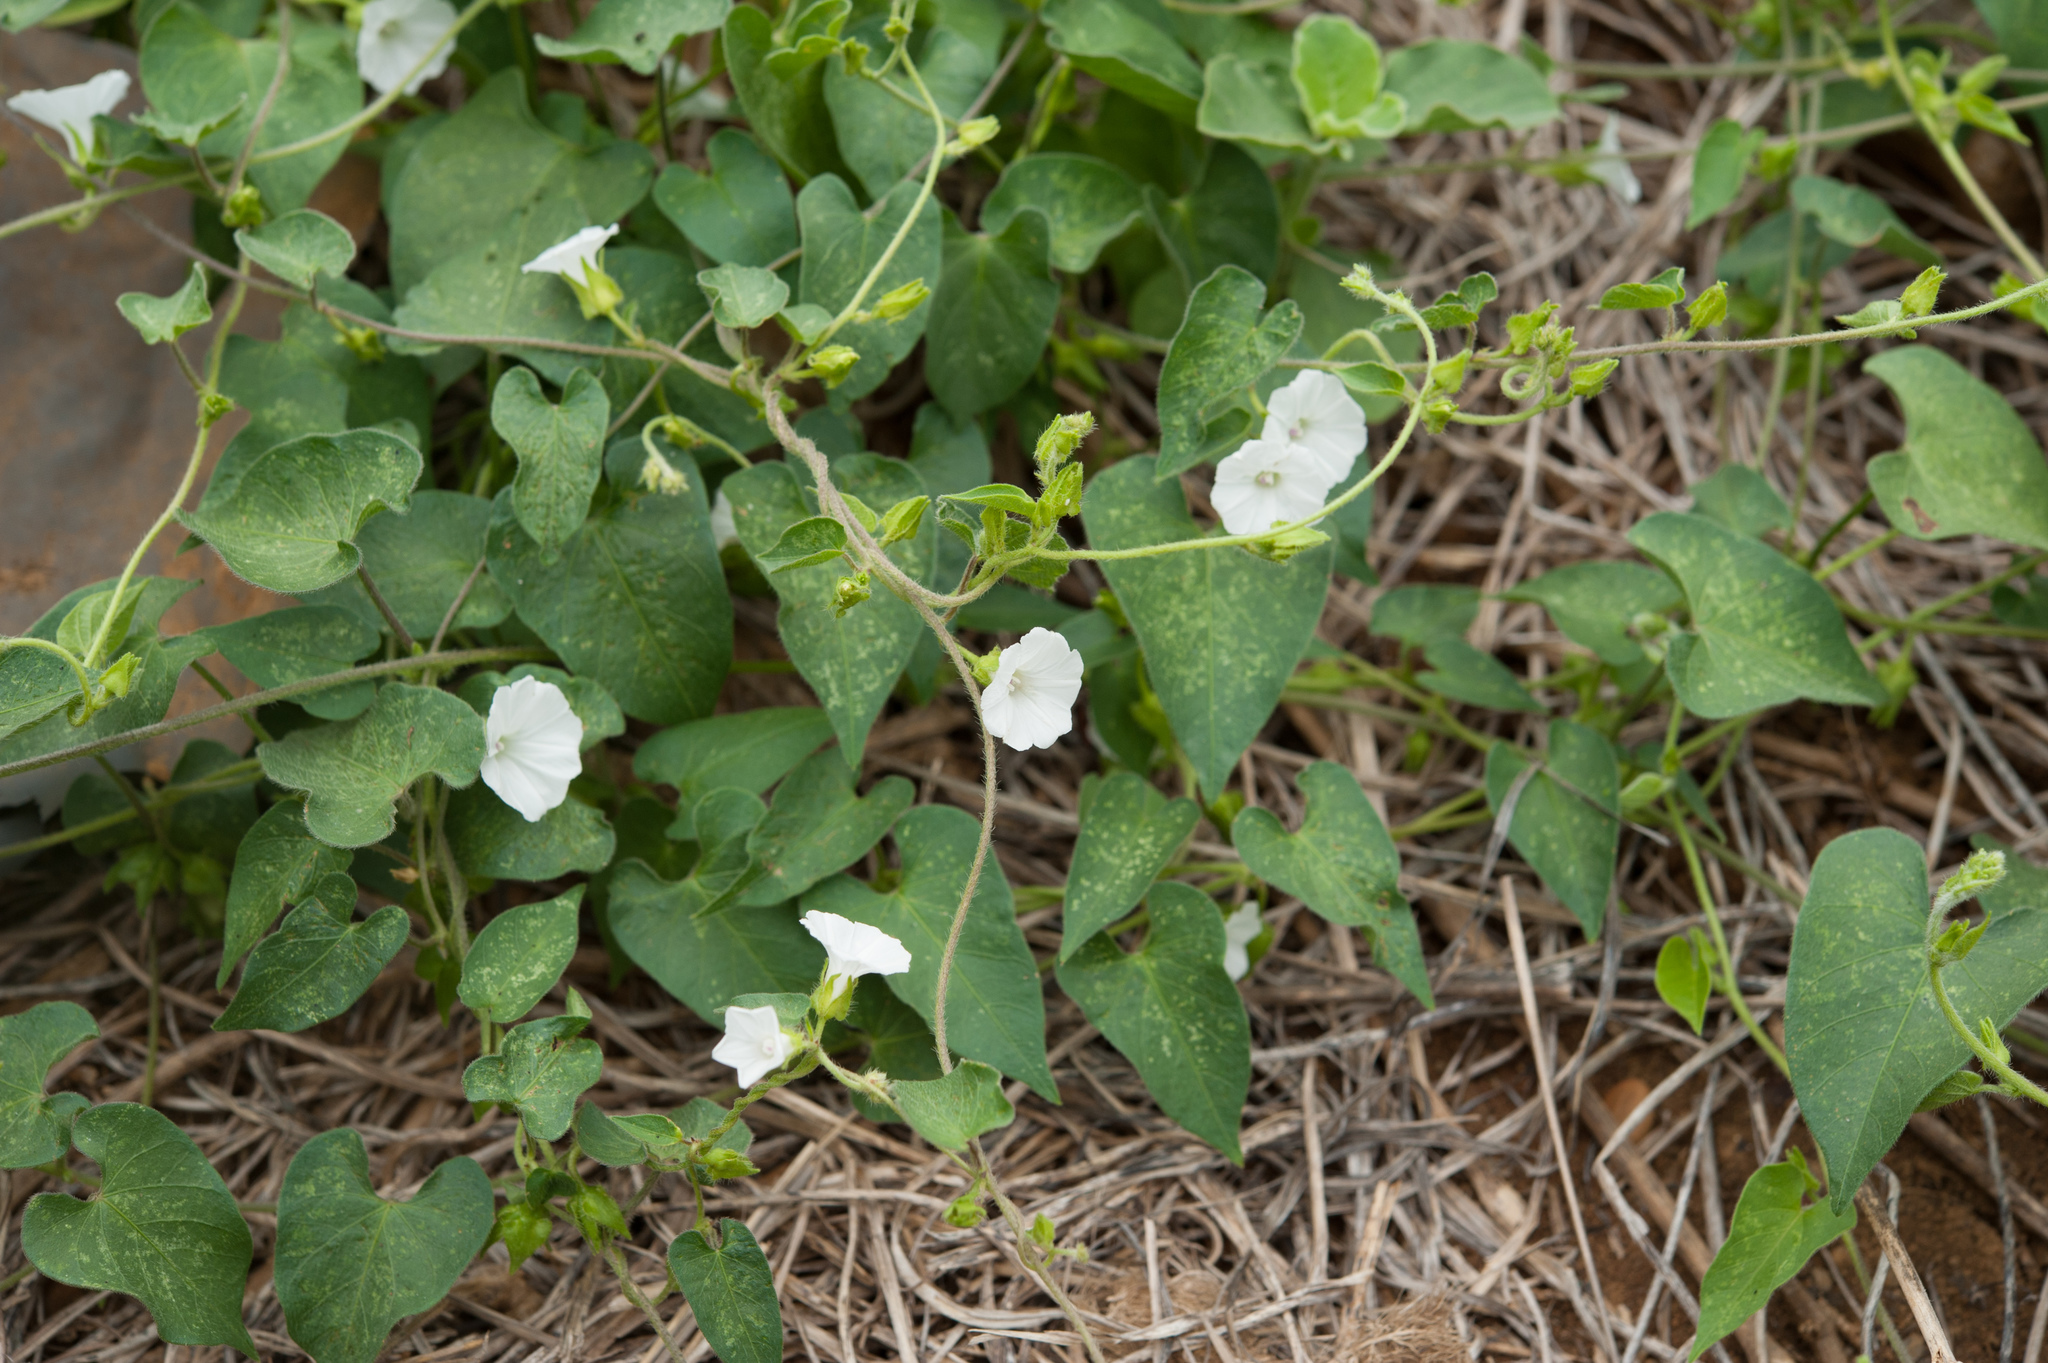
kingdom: Plantae
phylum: Tracheophyta
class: Magnoliopsida
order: Solanales
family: Convolvulaceae
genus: Ipomoea
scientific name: Ipomoea biflora
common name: Bellvine
